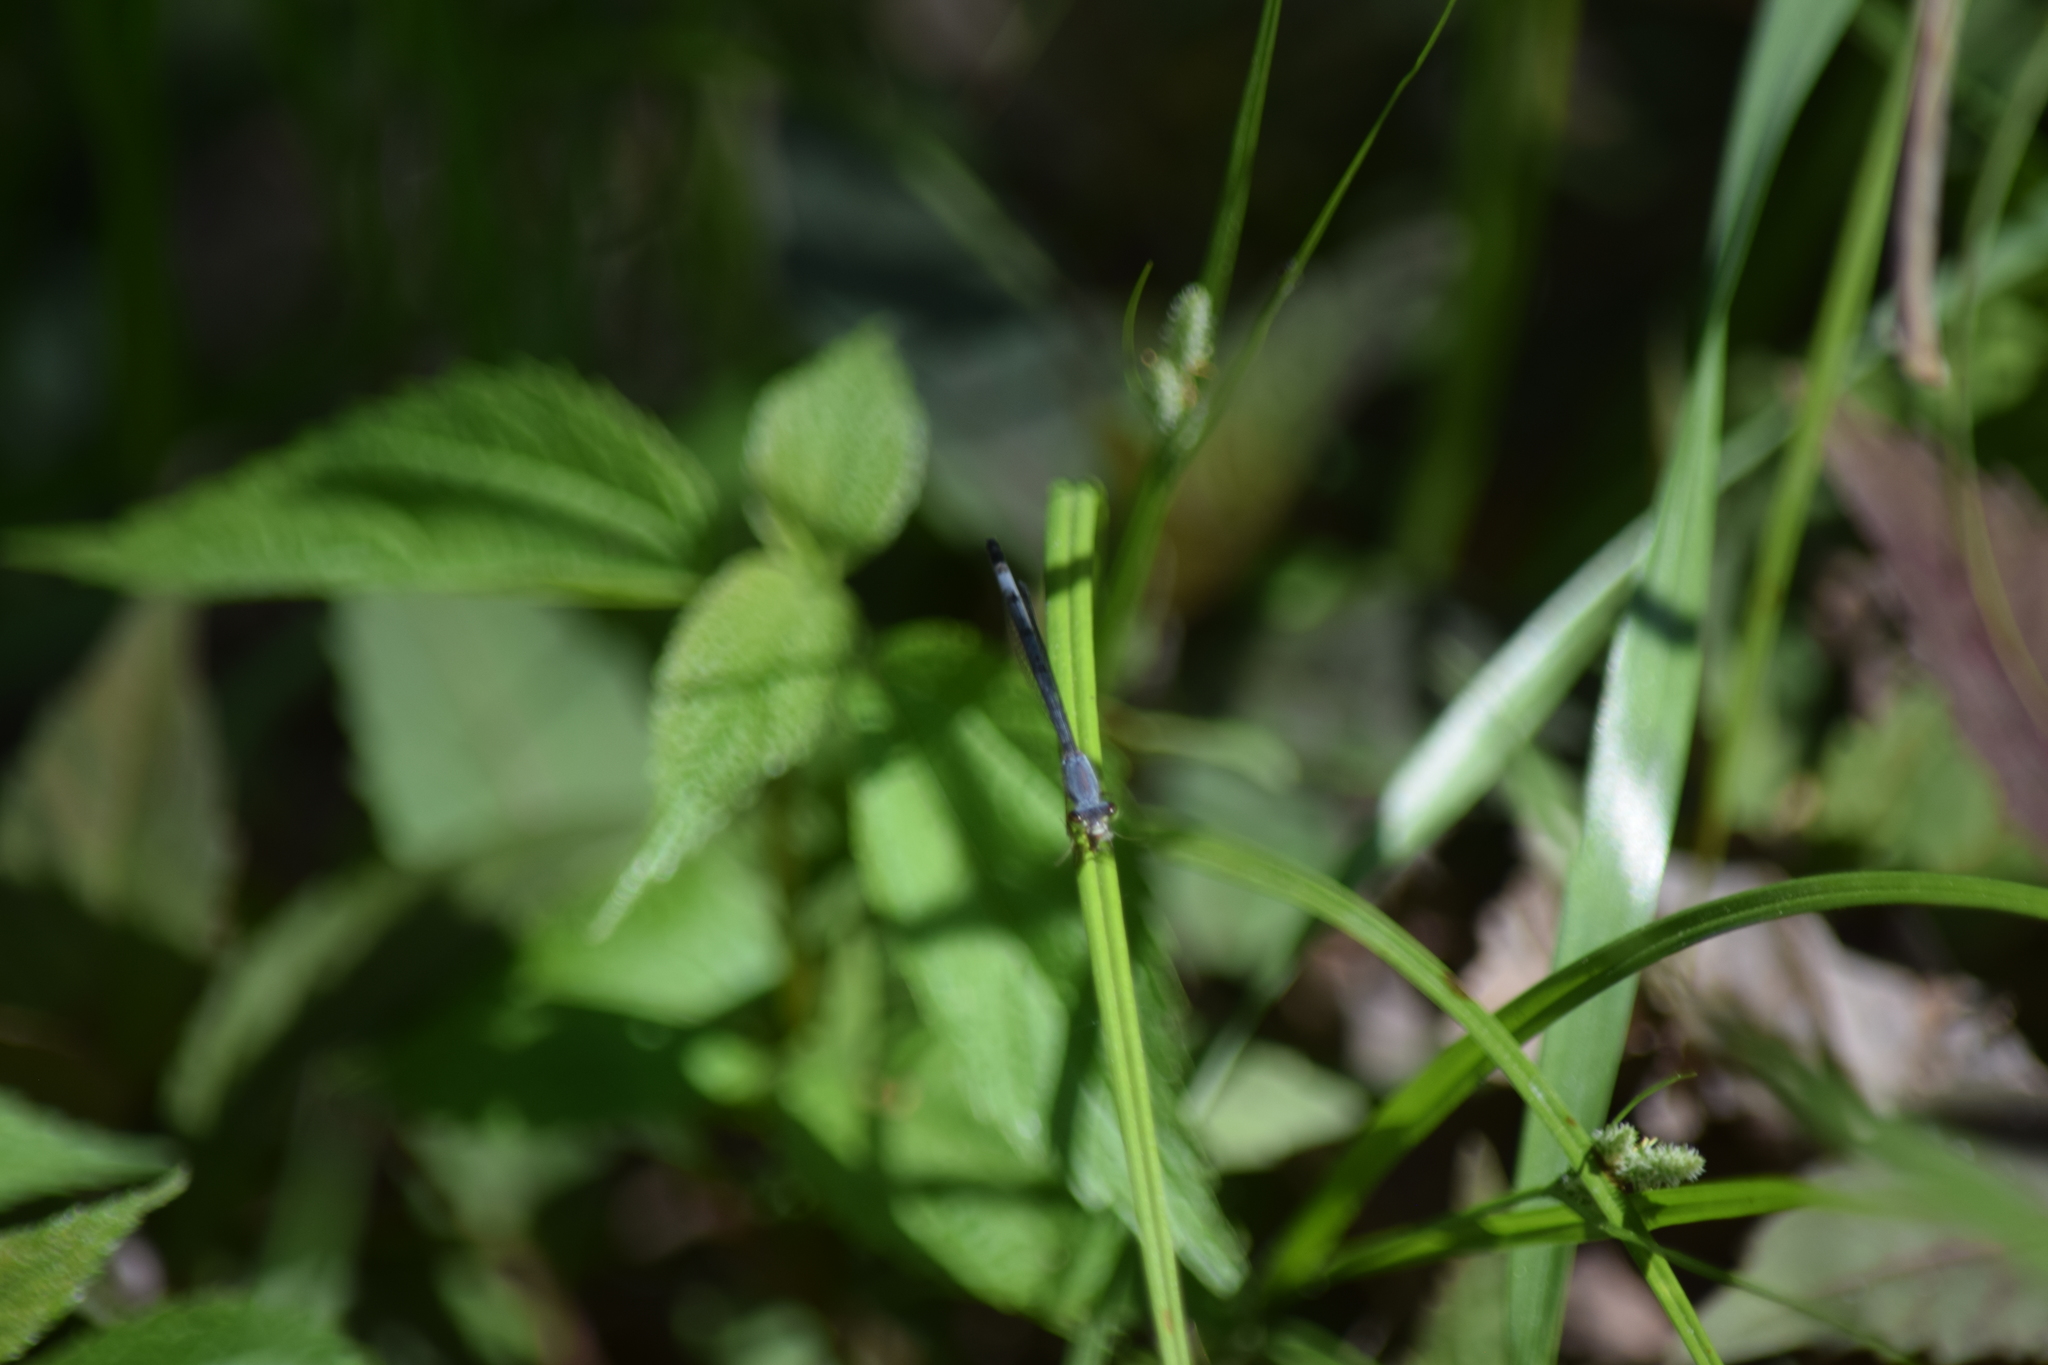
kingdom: Animalia
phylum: Arthropoda
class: Insecta
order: Odonata
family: Coenagrionidae
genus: Ischnura
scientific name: Ischnura posita
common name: Fragile forktail
